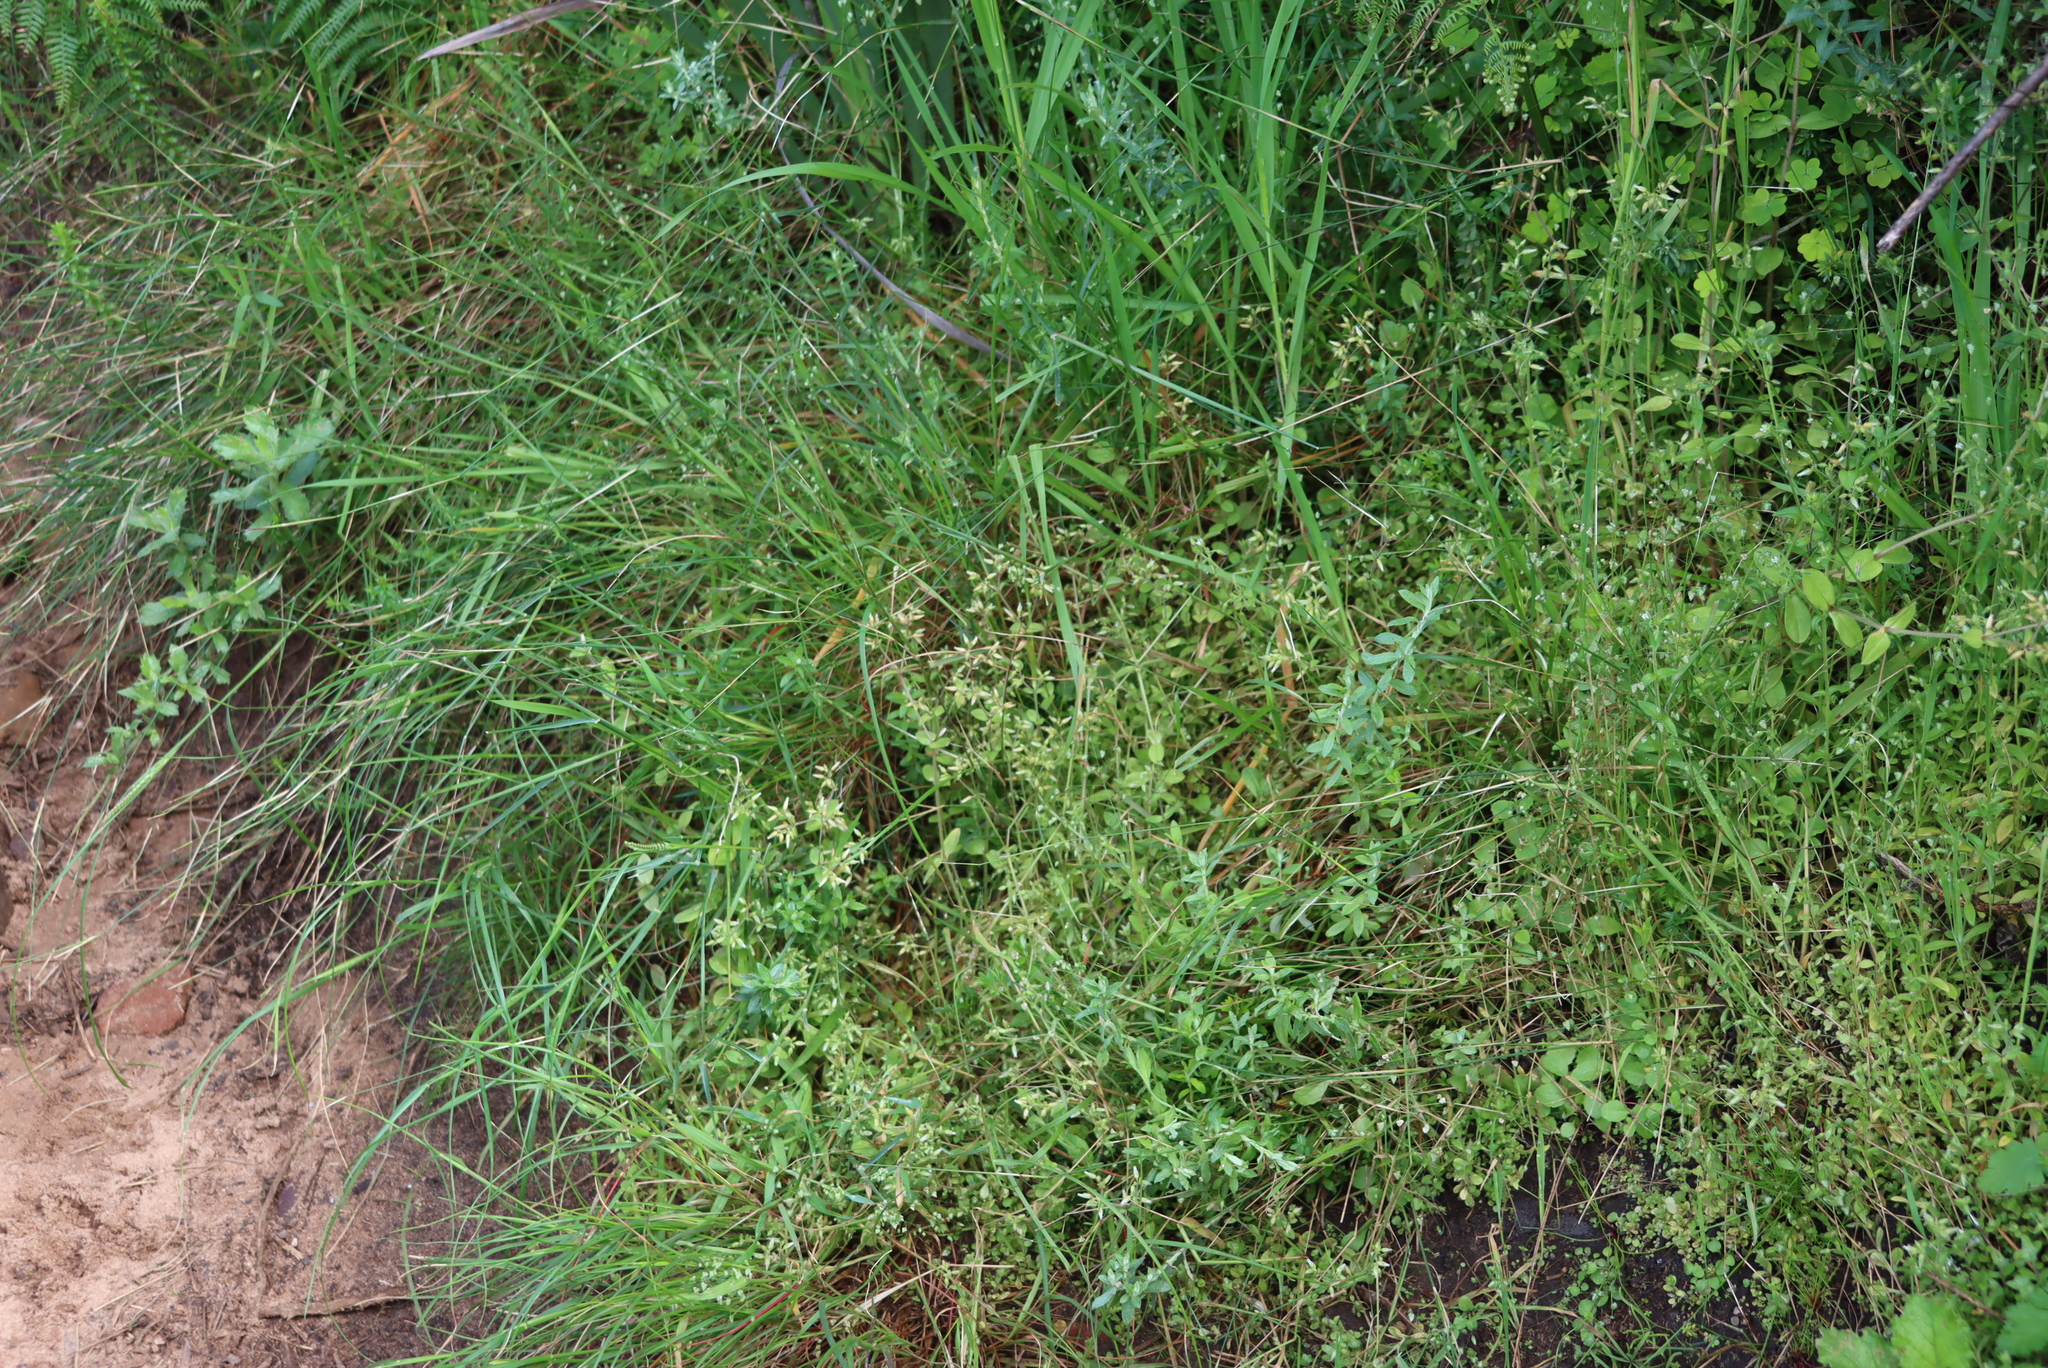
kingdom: Plantae
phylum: Tracheophyta
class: Magnoliopsida
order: Caryophyllales
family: Caryophyllaceae
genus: Cerastium
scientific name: Cerastium glomeratum
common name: Sticky chickweed
